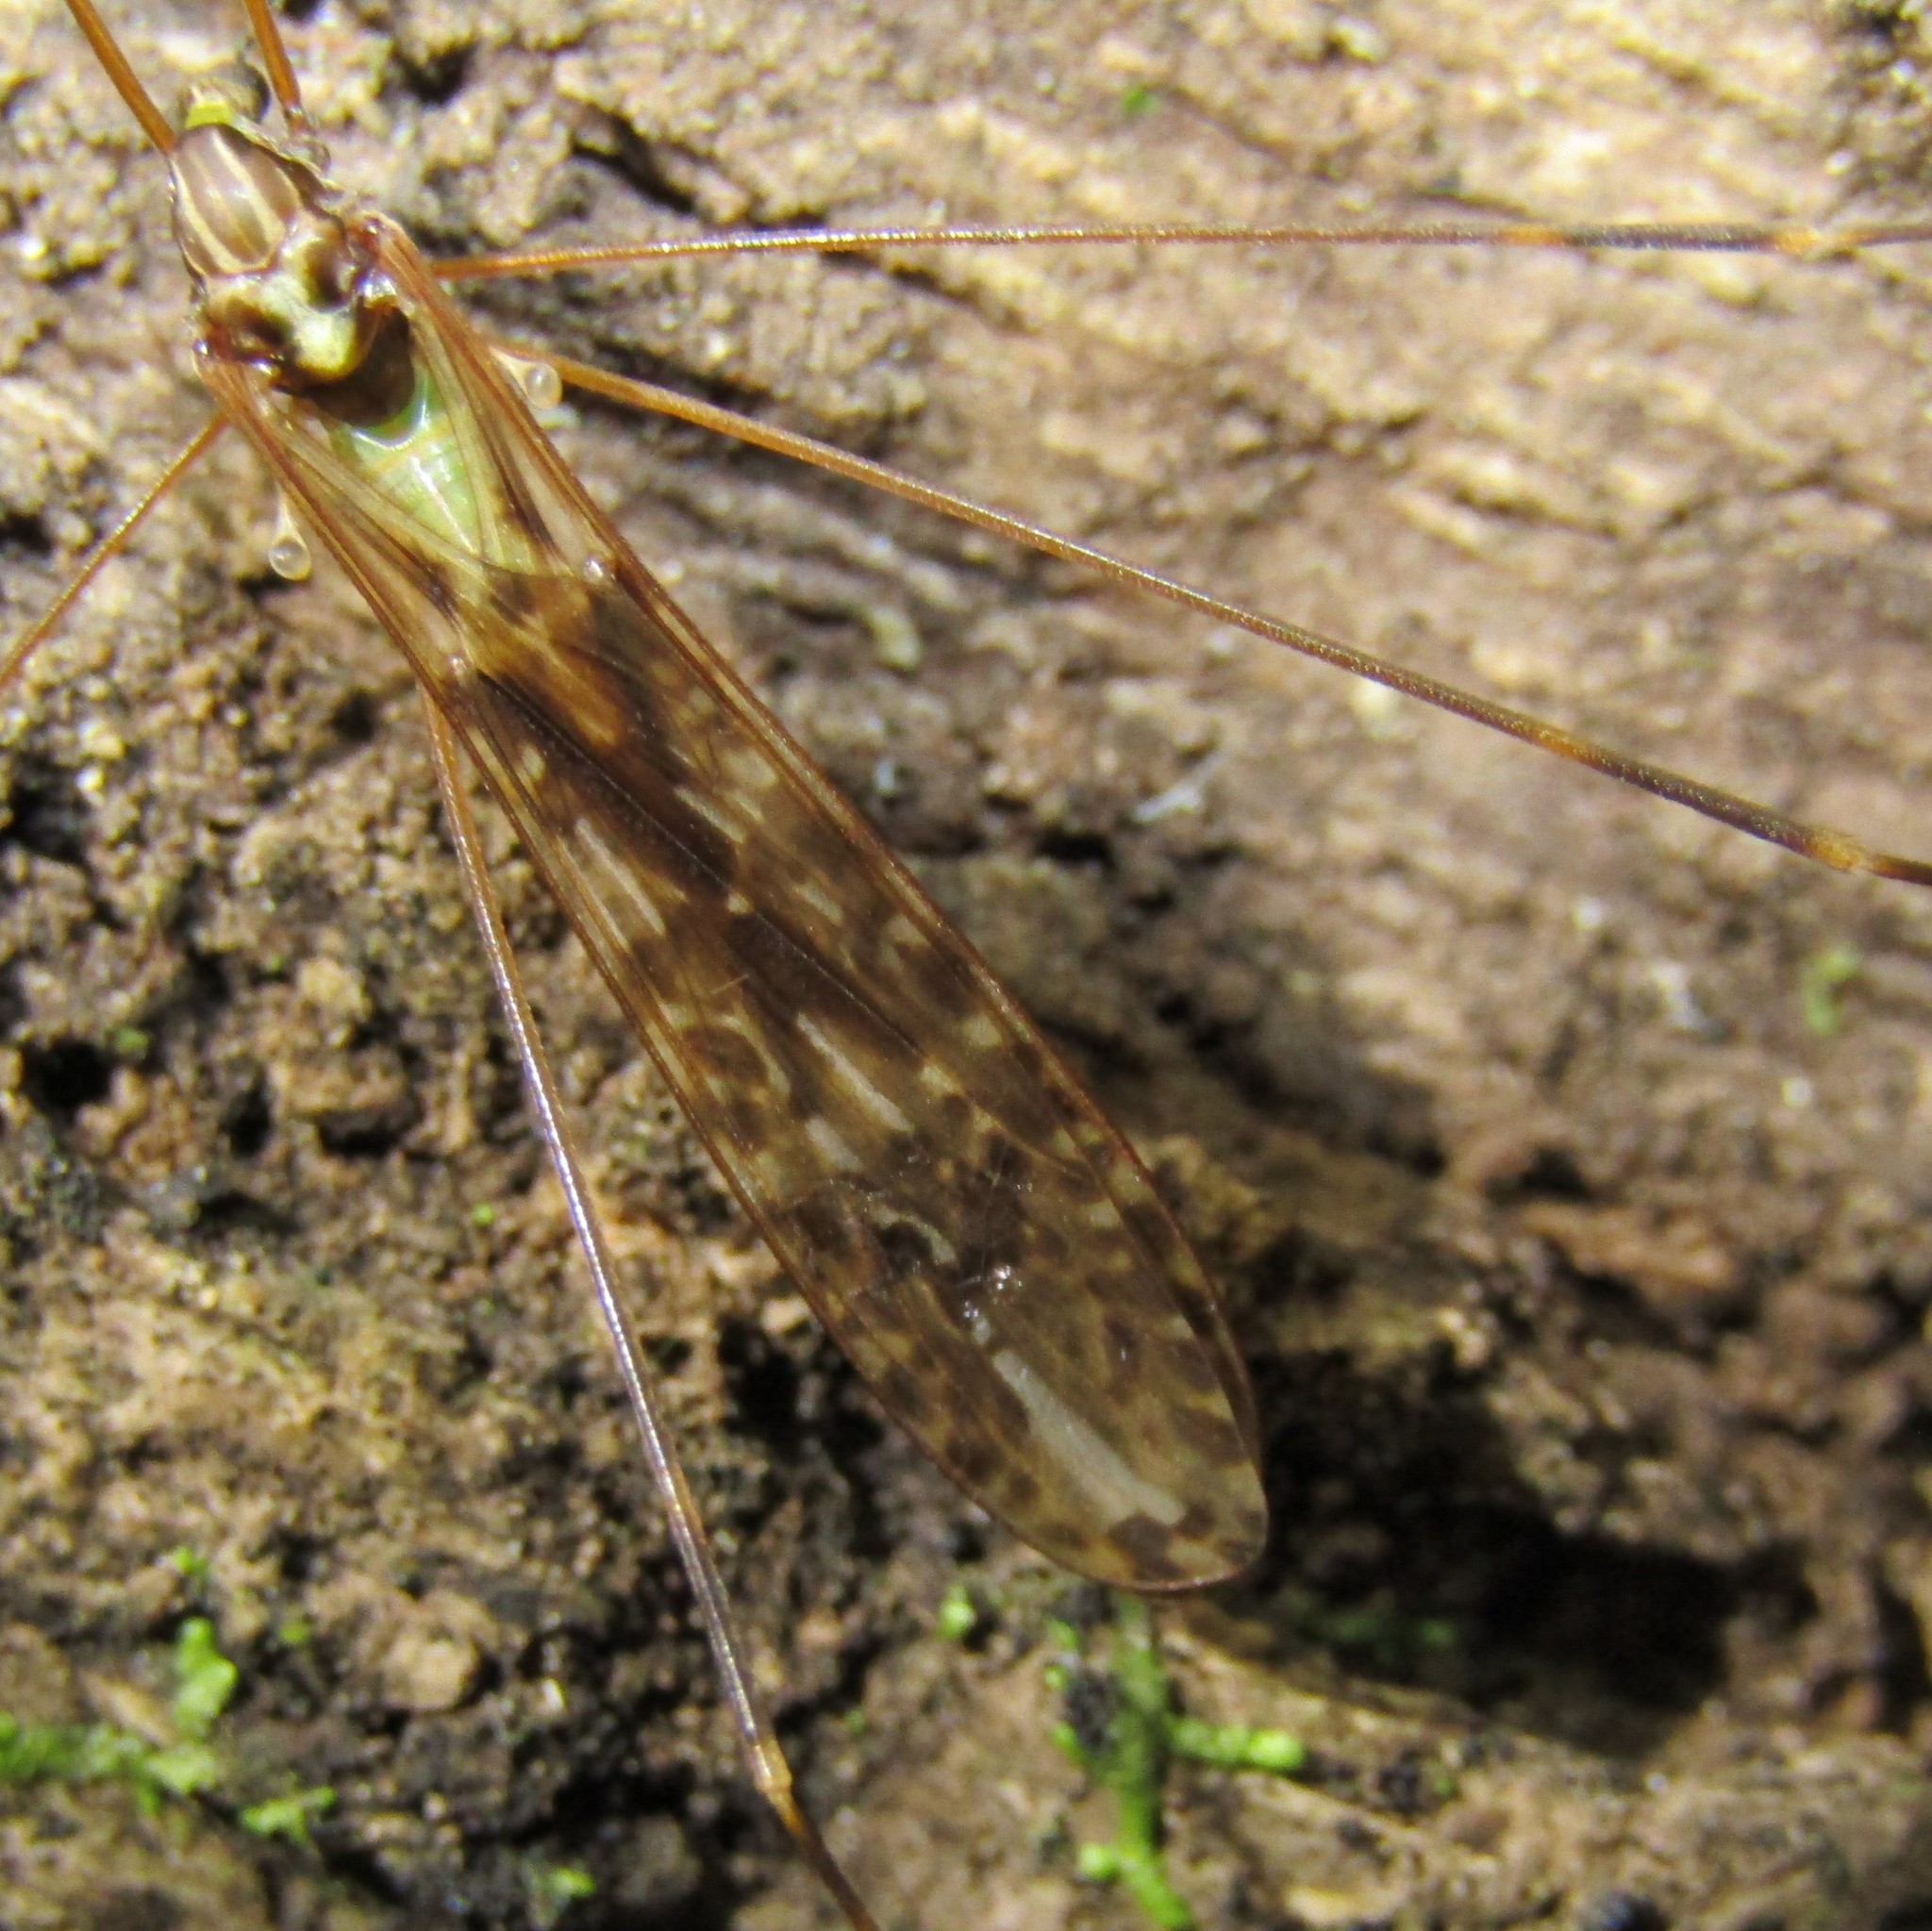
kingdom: Animalia
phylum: Arthropoda
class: Insecta
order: Diptera
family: Limoniidae
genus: Discobola
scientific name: Discobola dohrni
